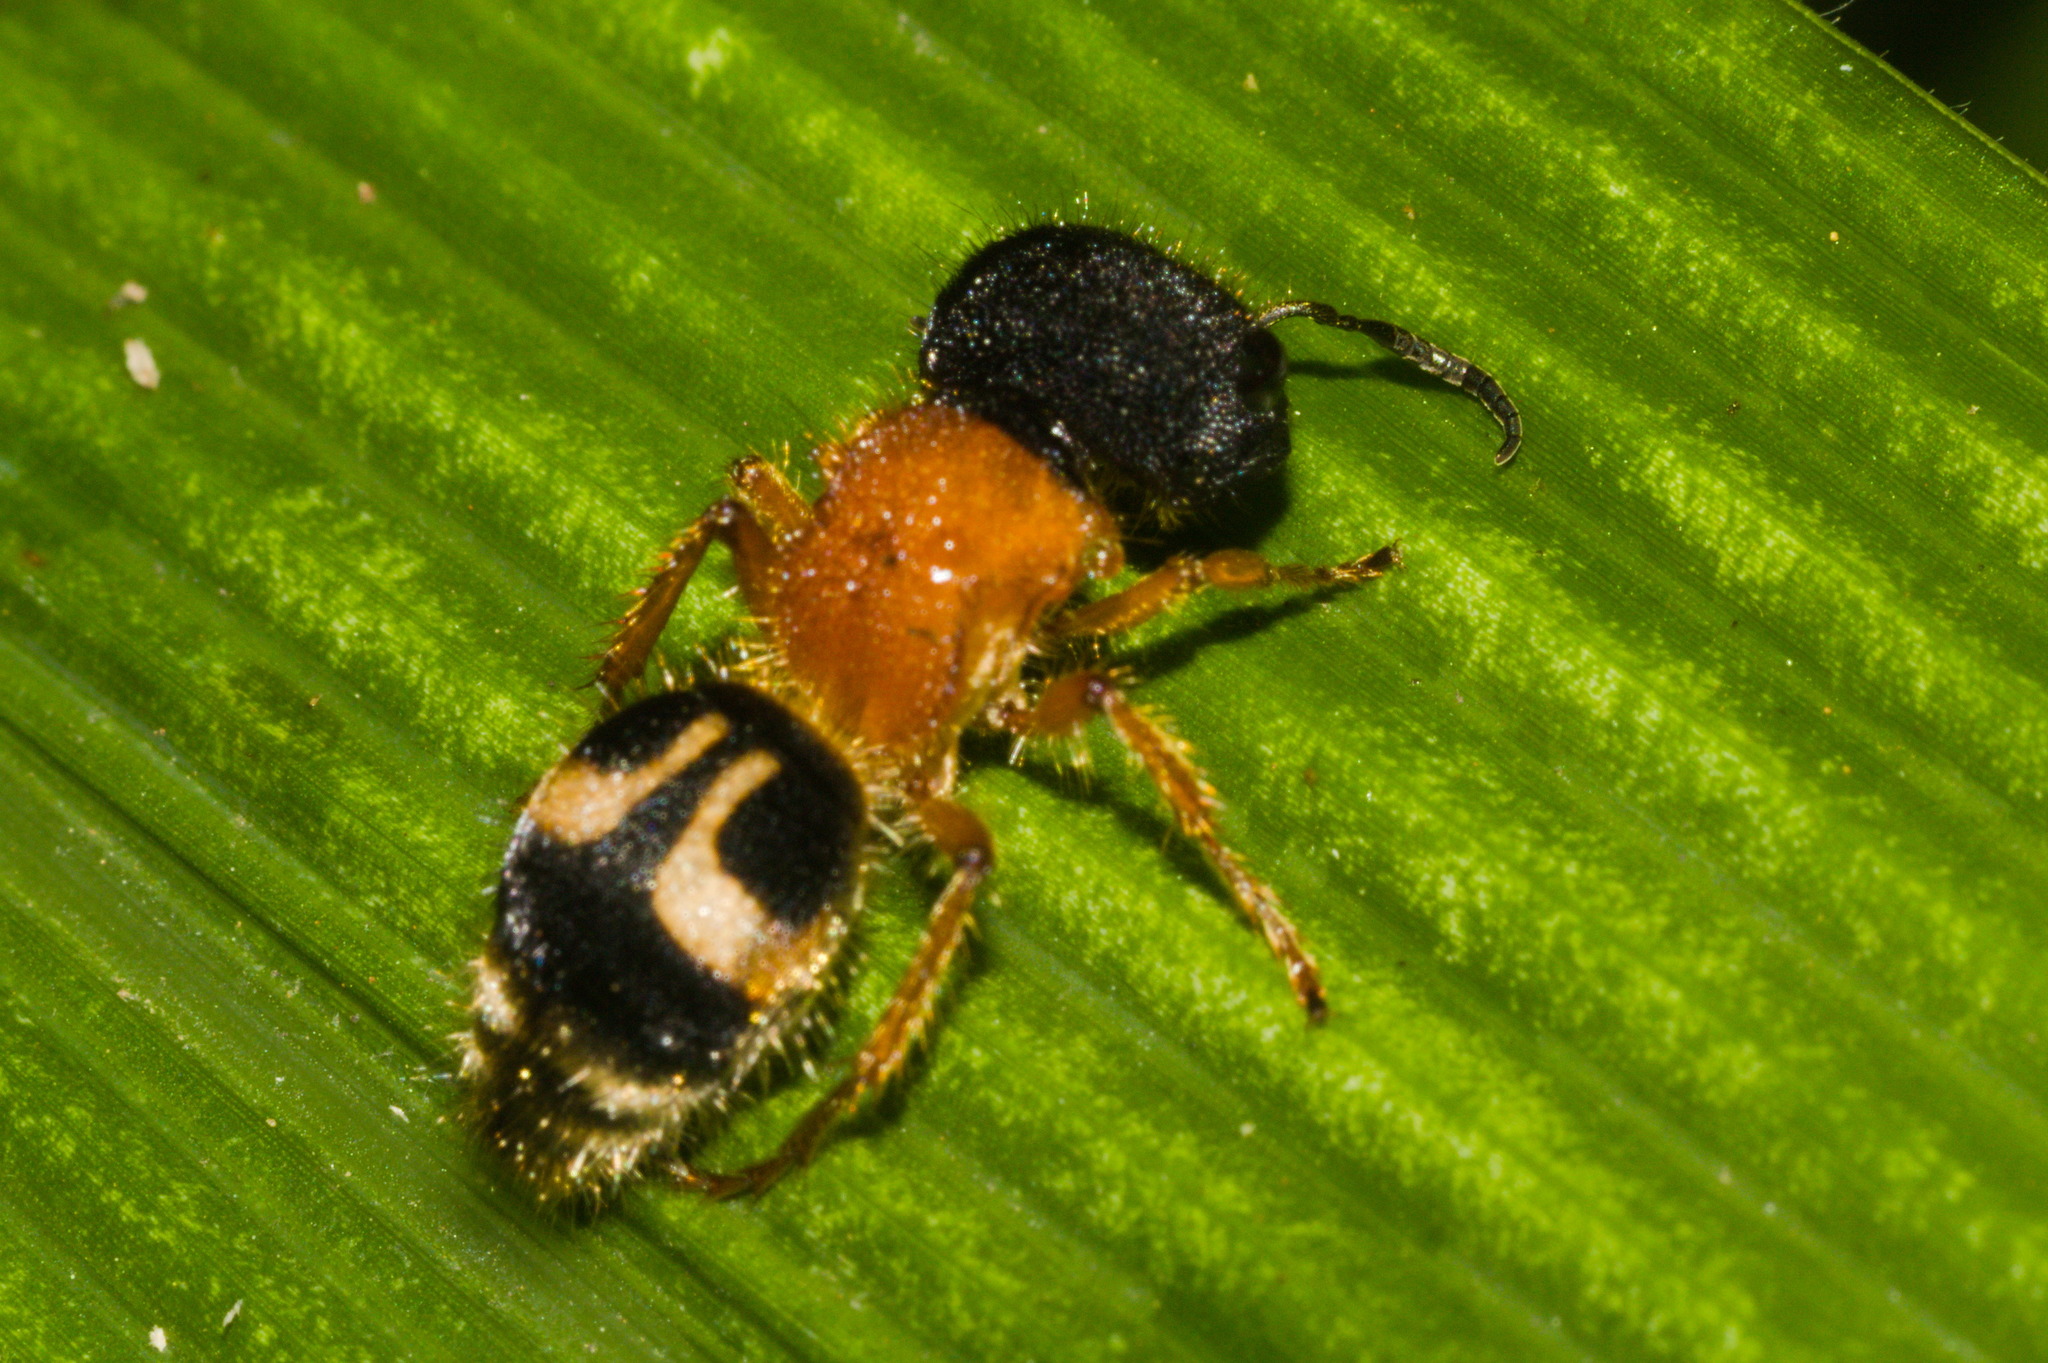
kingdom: Animalia
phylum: Arthropoda
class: Insecta
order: Hymenoptera
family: Mutillidae
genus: Pseudomethoca
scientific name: Pseudomethoca
